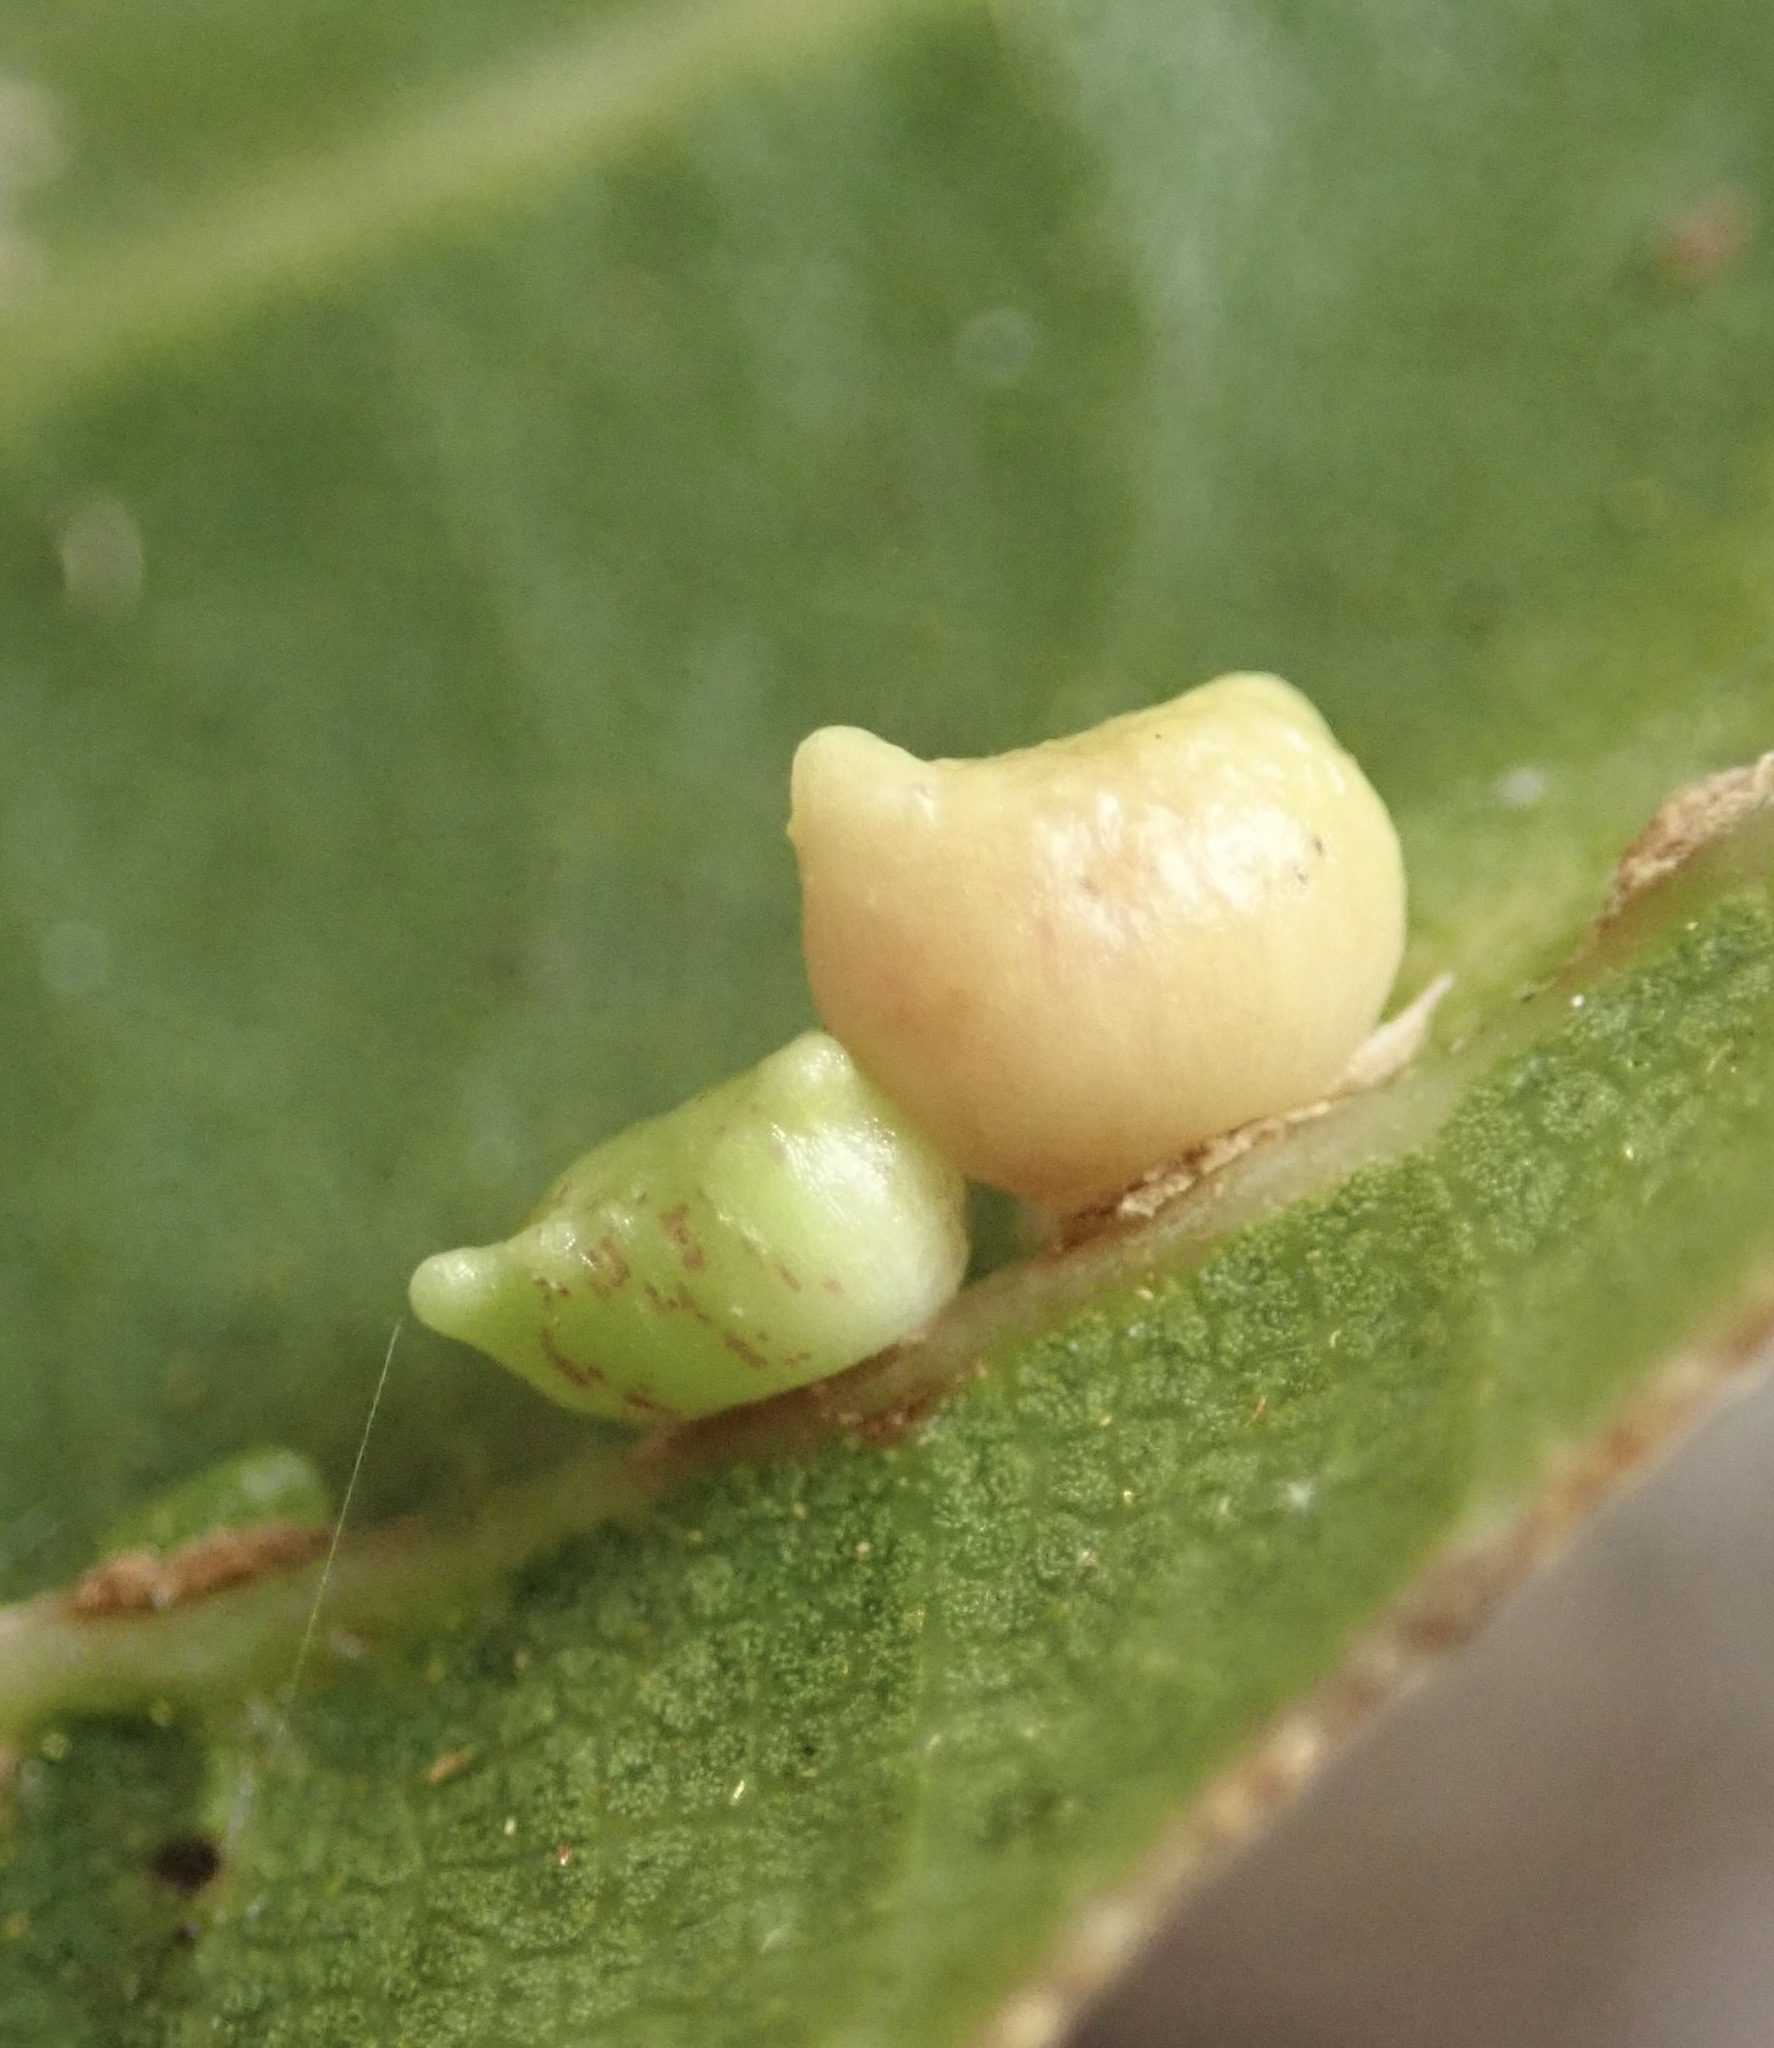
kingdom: Animalia
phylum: Arthropoda
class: Insecta
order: Hymenoptera
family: Cynipidae
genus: Dryocosmus
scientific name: Dryocosmus
